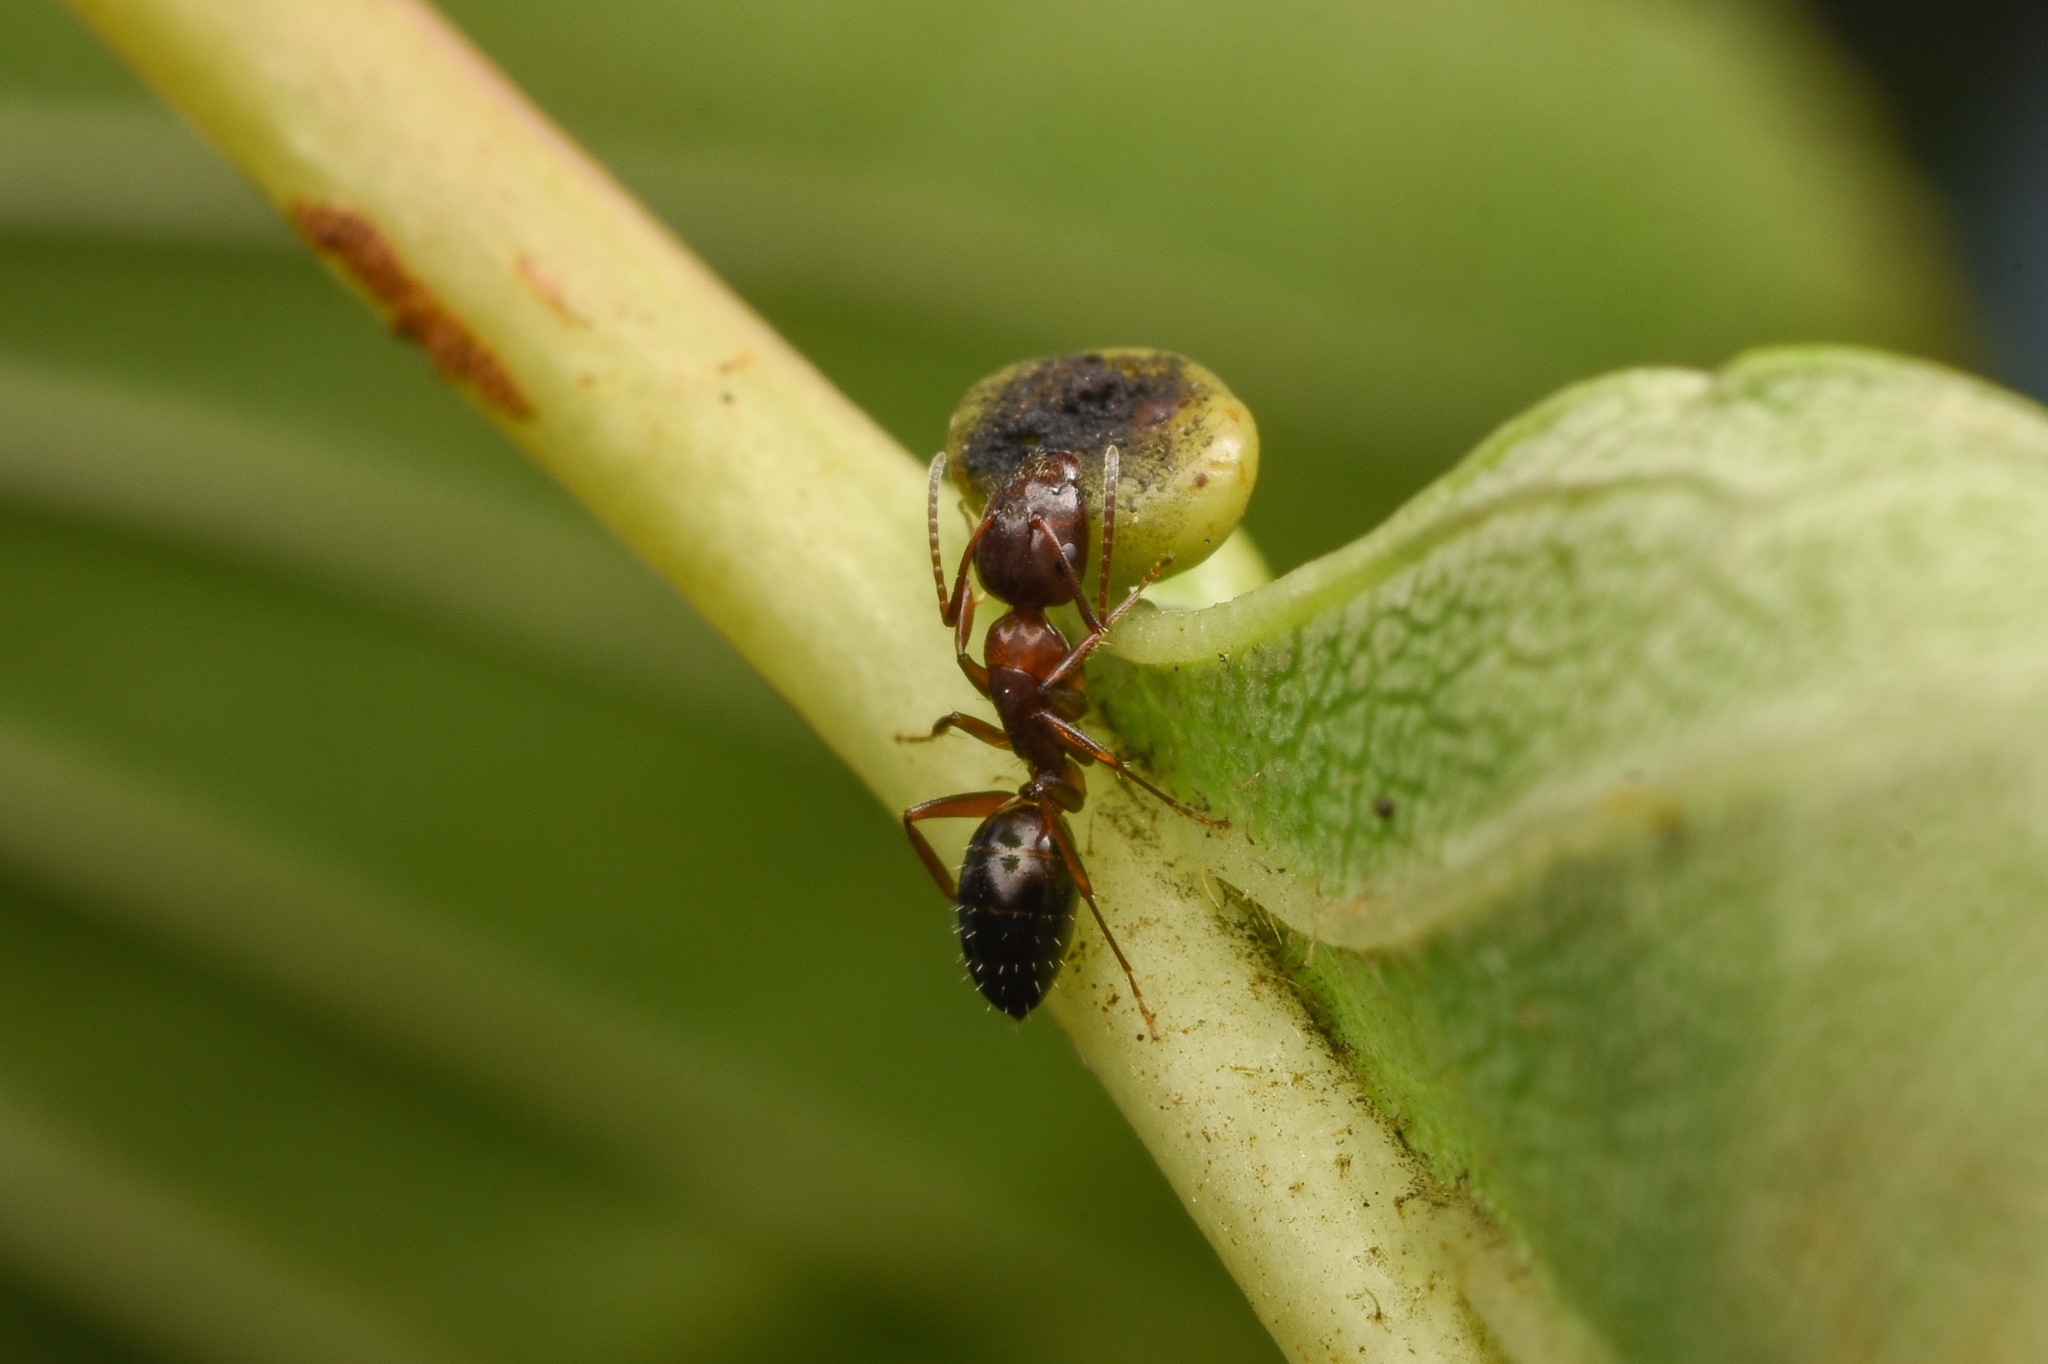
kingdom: Animalia
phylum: Arthropoda
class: Insecta
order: Hymenoptera
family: Formicidae
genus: Camponotus
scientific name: Camponotus vitiosus
